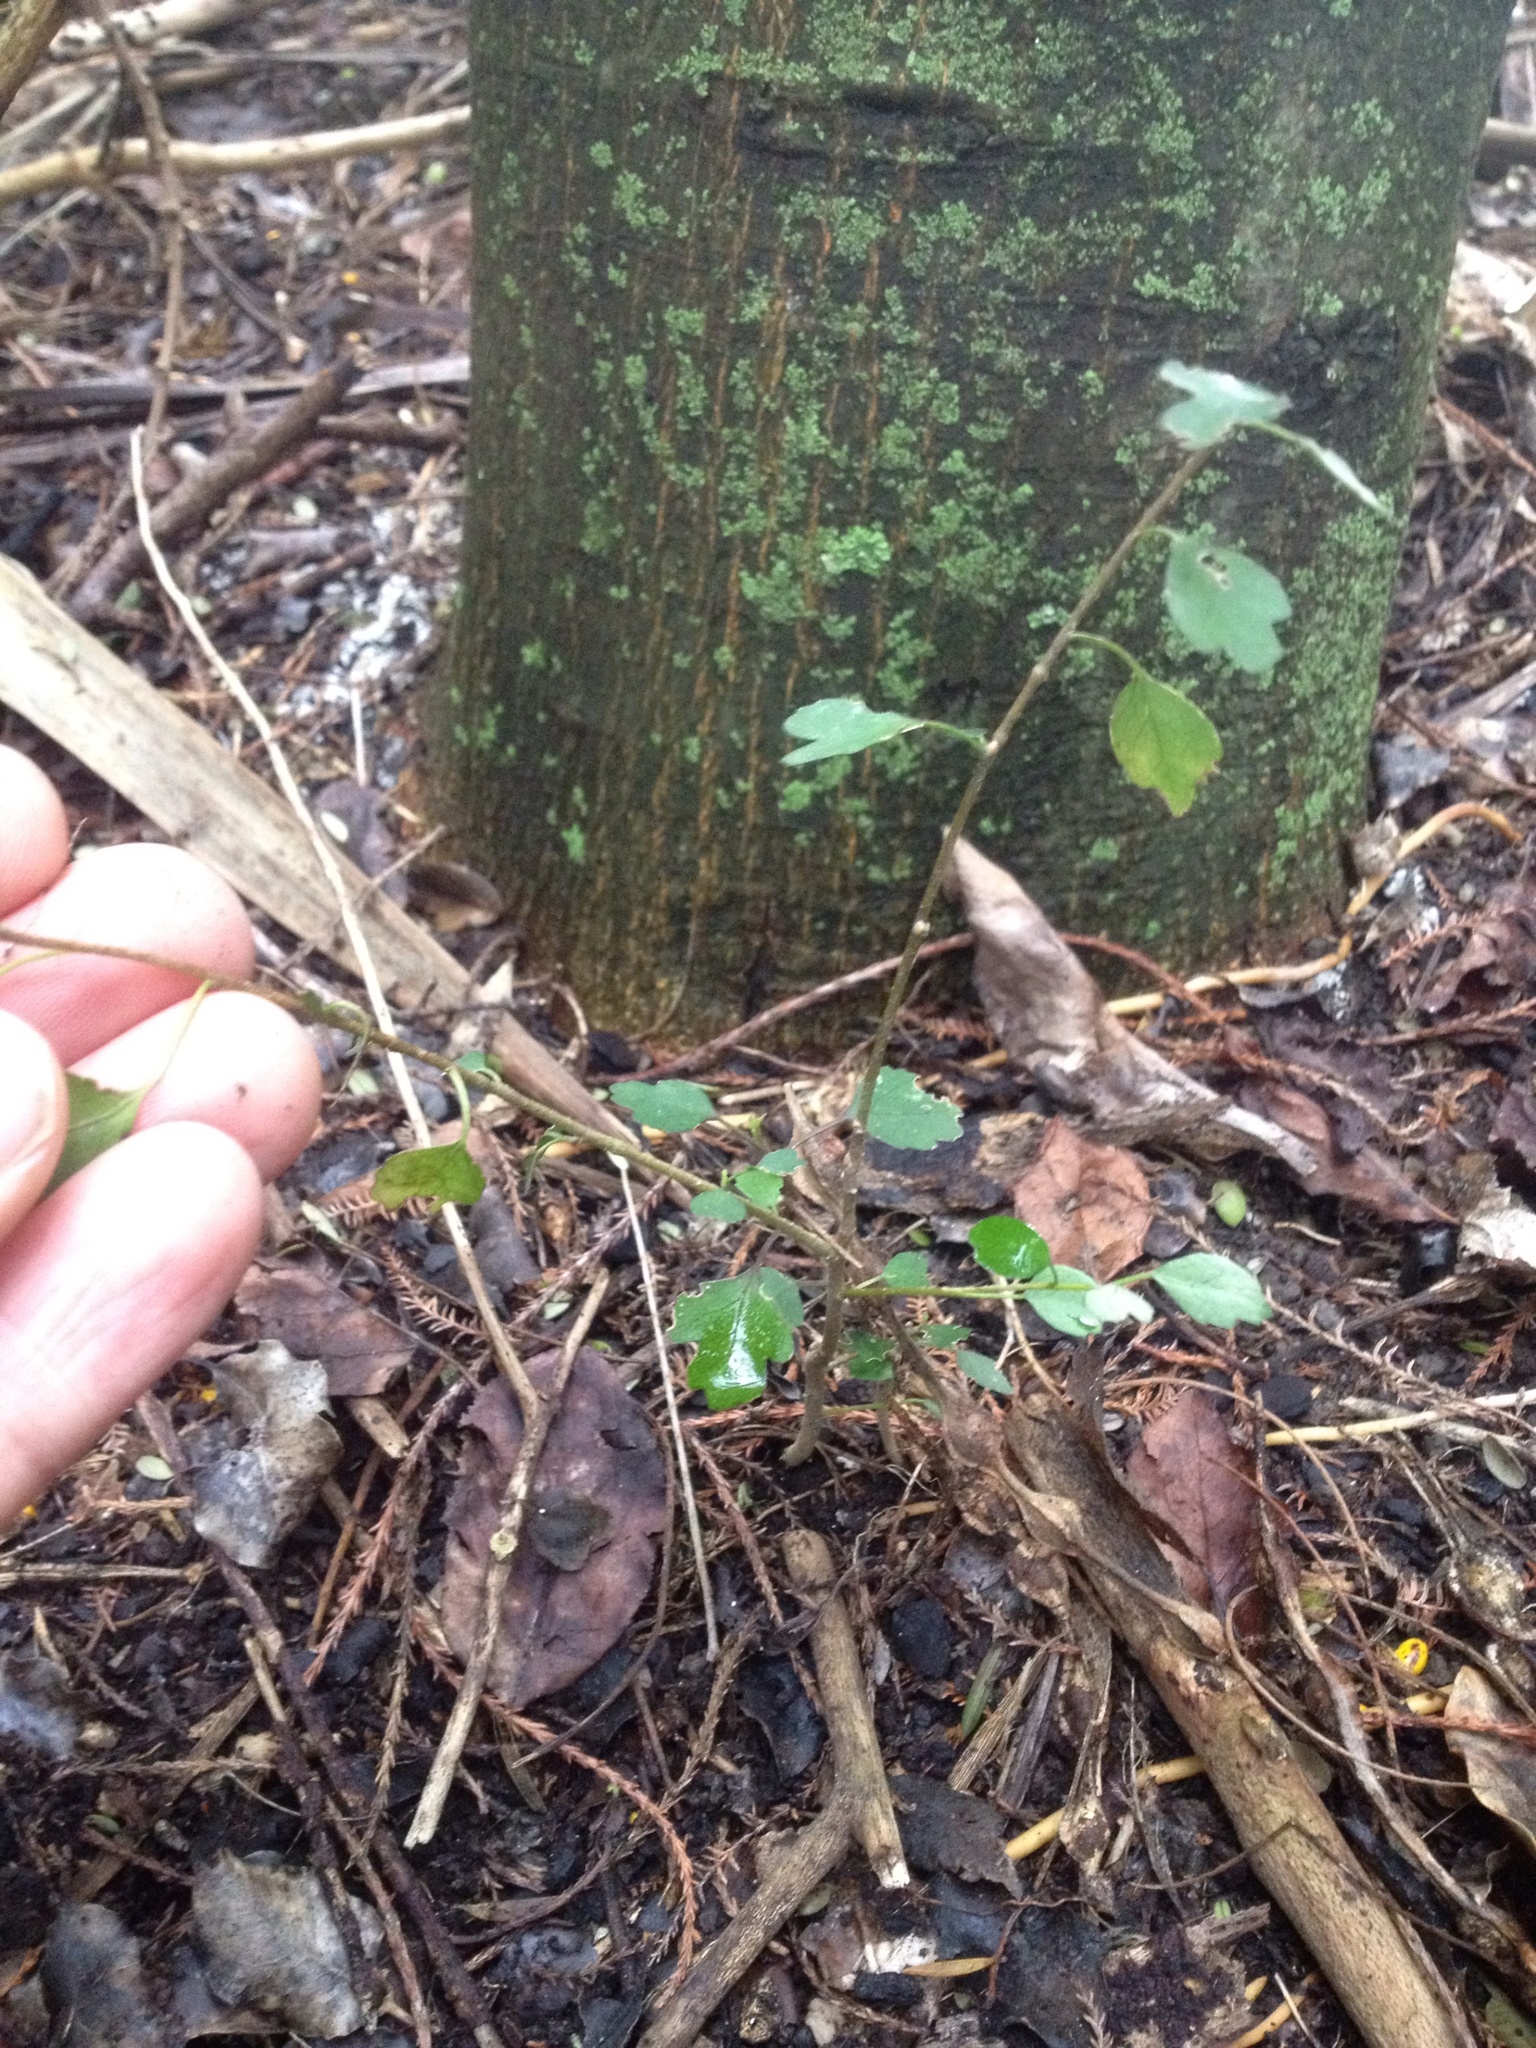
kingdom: Plantae
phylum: Tracheophyta
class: Magnoliopsida
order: Malvales
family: Malvaceae
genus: Plagianthus
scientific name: Plagianthus regius
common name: Manatu
